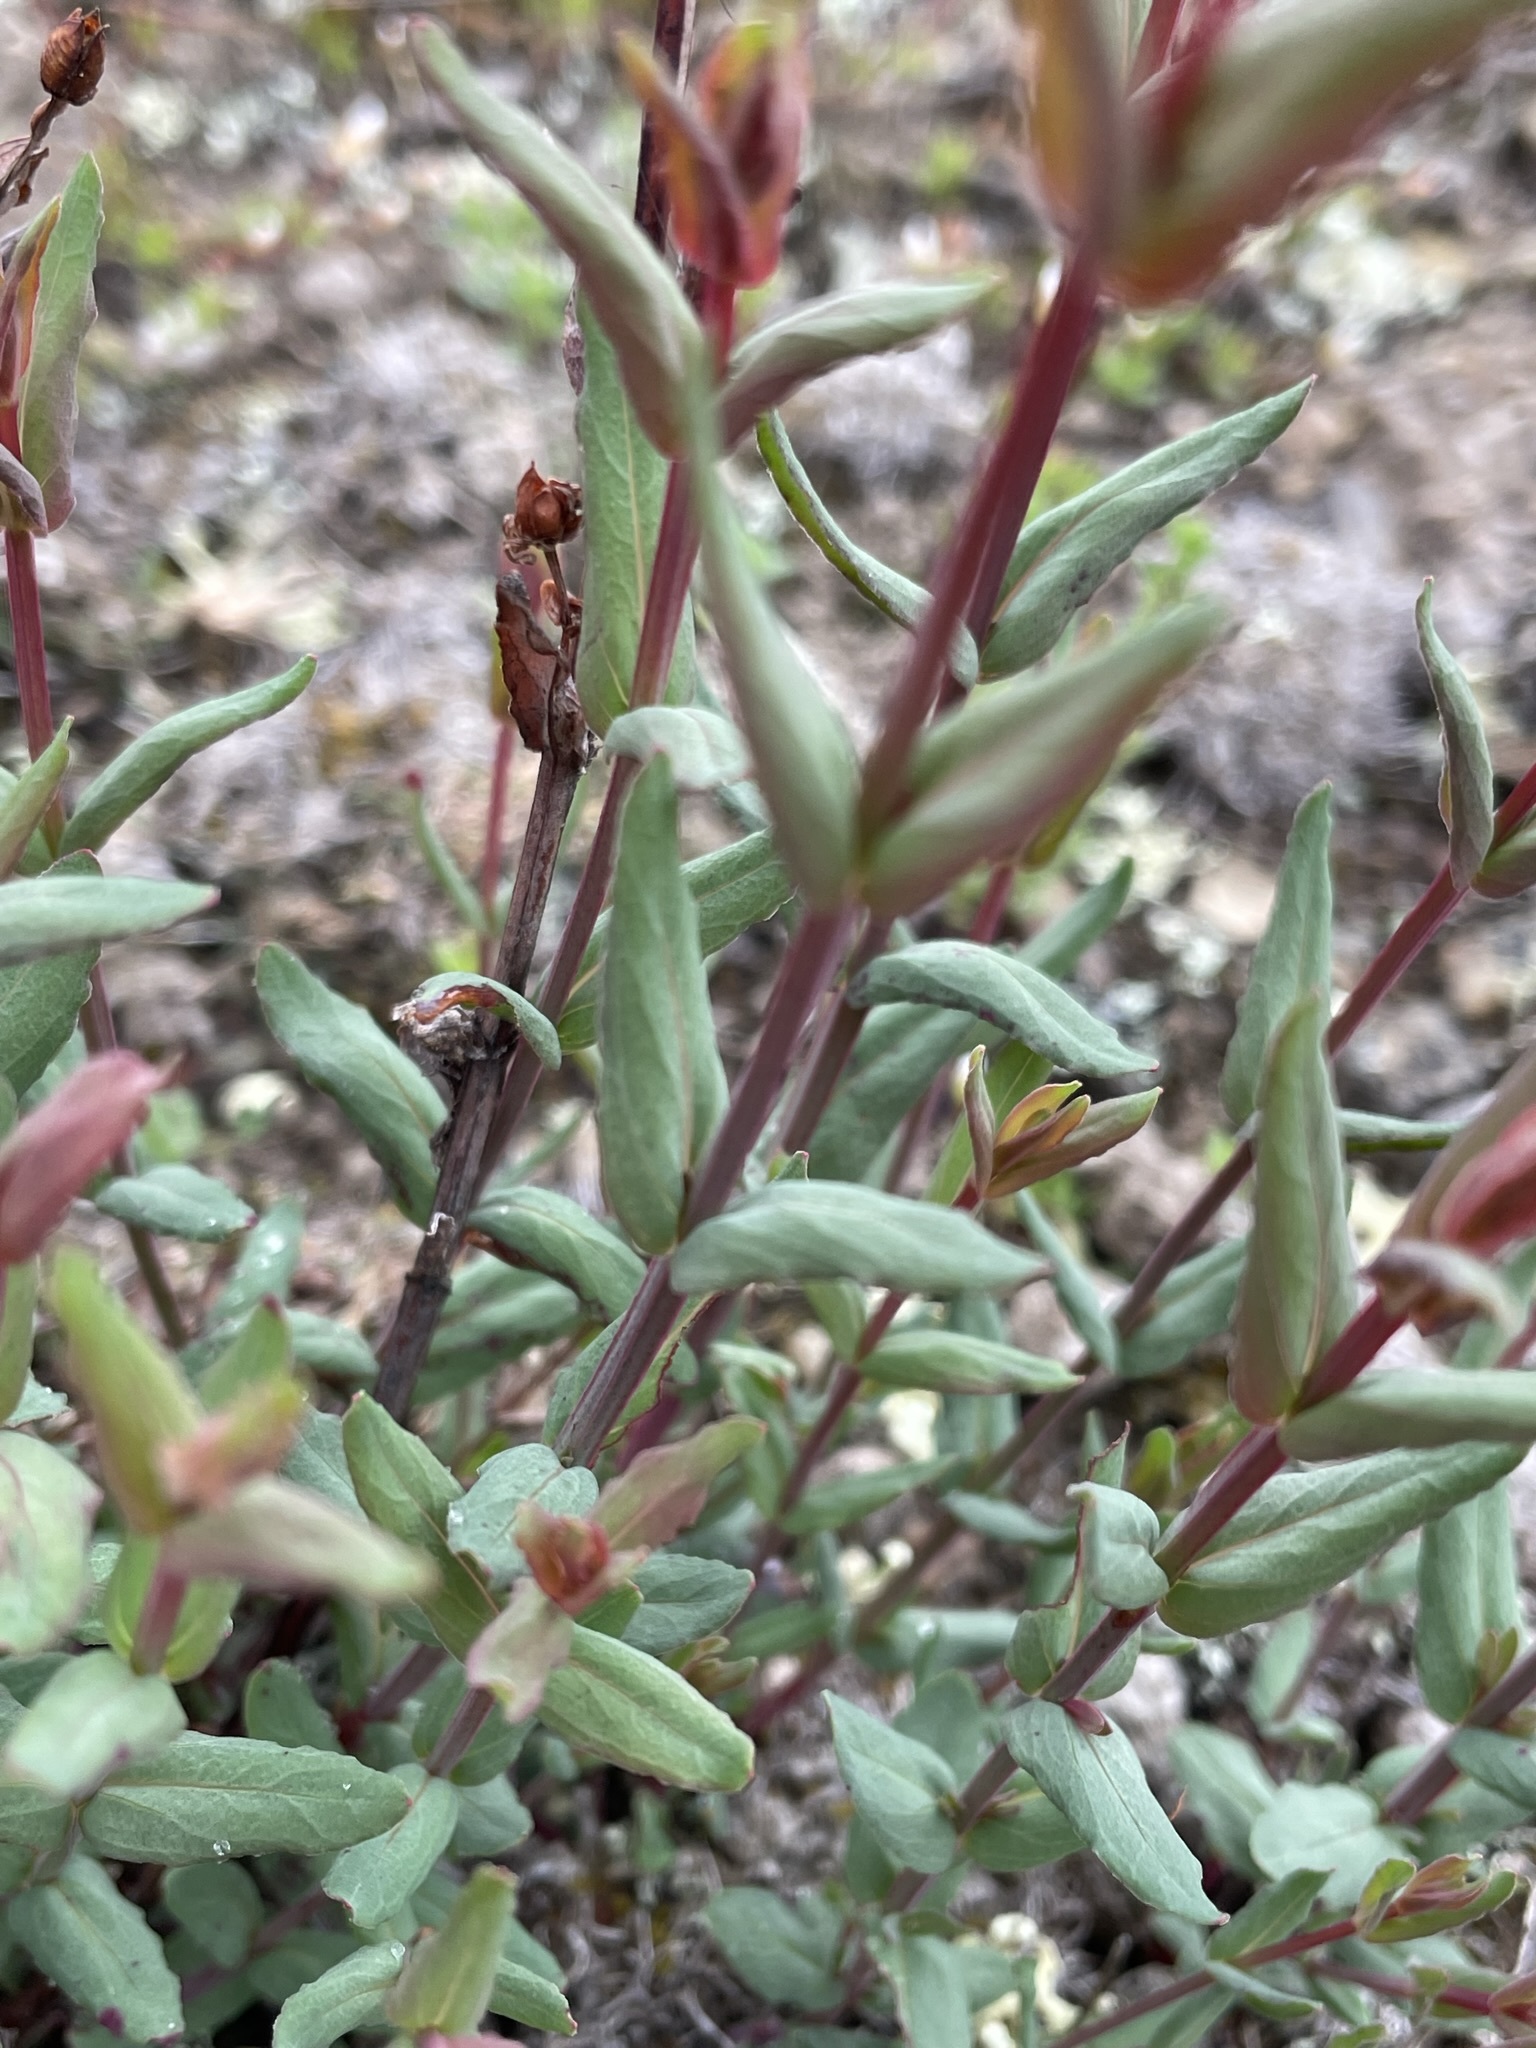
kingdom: Plantae
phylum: Tracheophyta
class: Magnoliopsida
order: Malpighiales
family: Hypericaceae
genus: Hypericum
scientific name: Hypericum perforatum
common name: Common st. johnswort
